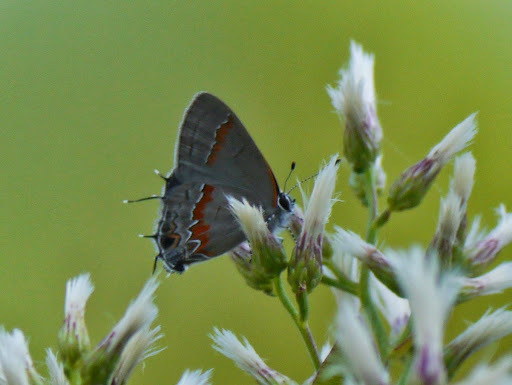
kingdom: Animalia
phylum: Arthropoda
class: Insecta
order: Lepidoptera
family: Lycaenidae
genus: Calycopis
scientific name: Calycopis cecrops
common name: Red-banded hairstreak
